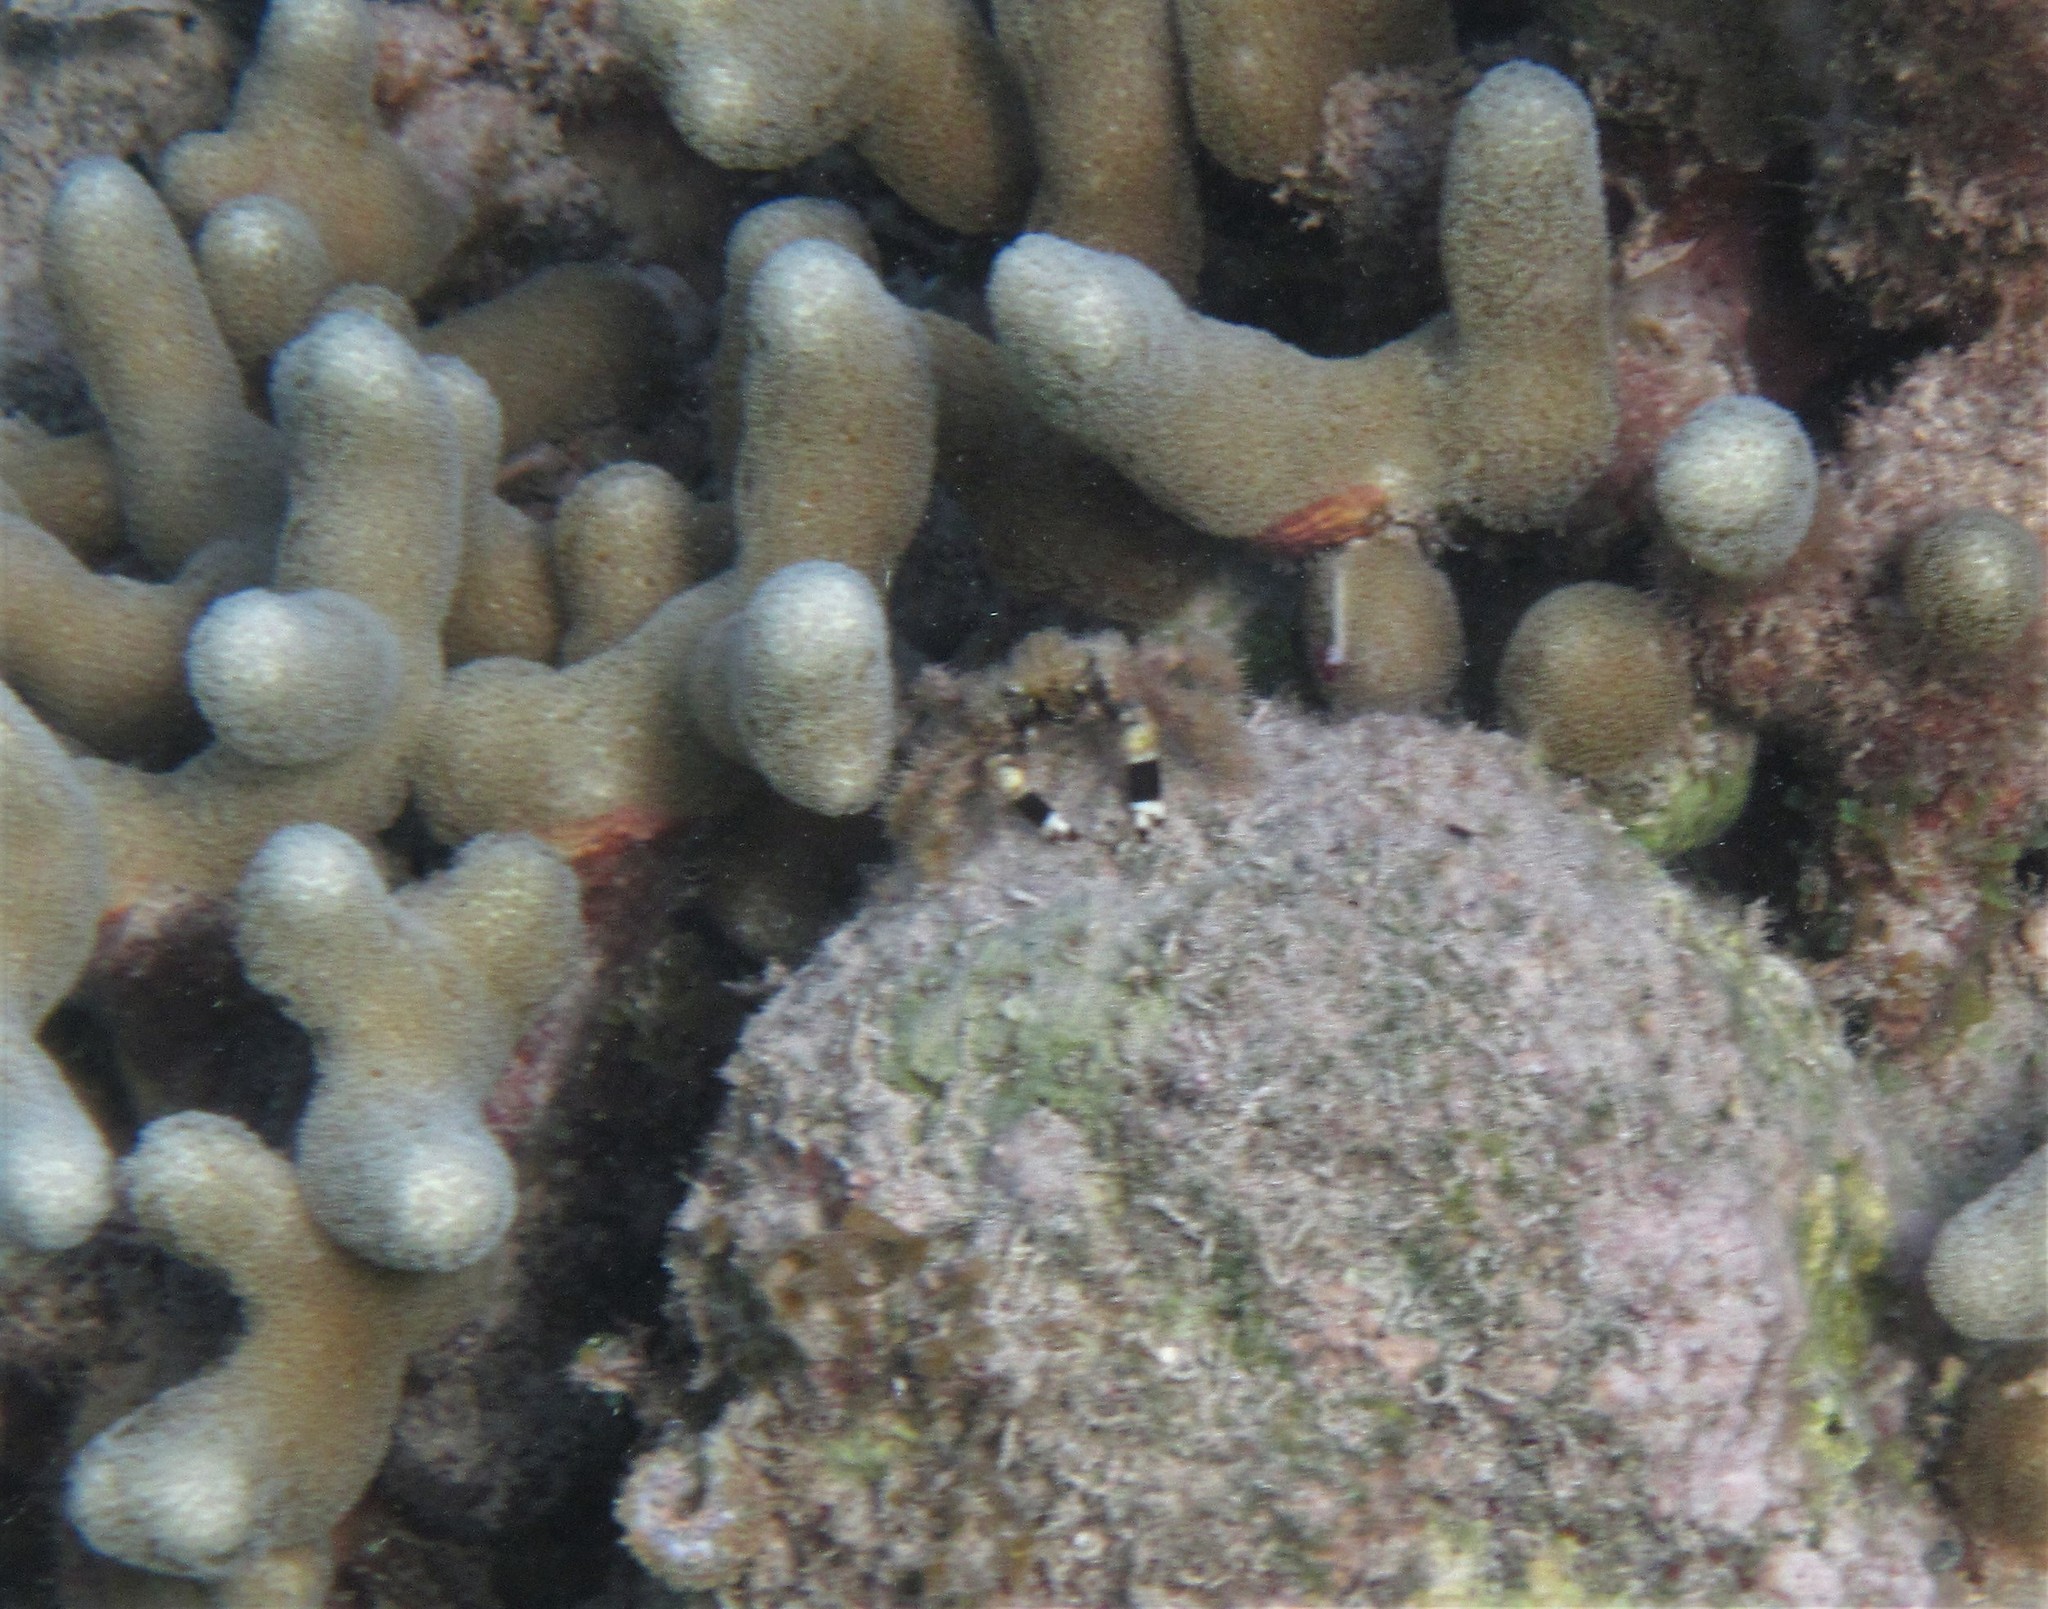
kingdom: Animalia
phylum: Arthropoda
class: Malacostraca
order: Decapoda
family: Mithracidae
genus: Mithraculus
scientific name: Mithraculus cinctimanus
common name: Banded clinging crab
